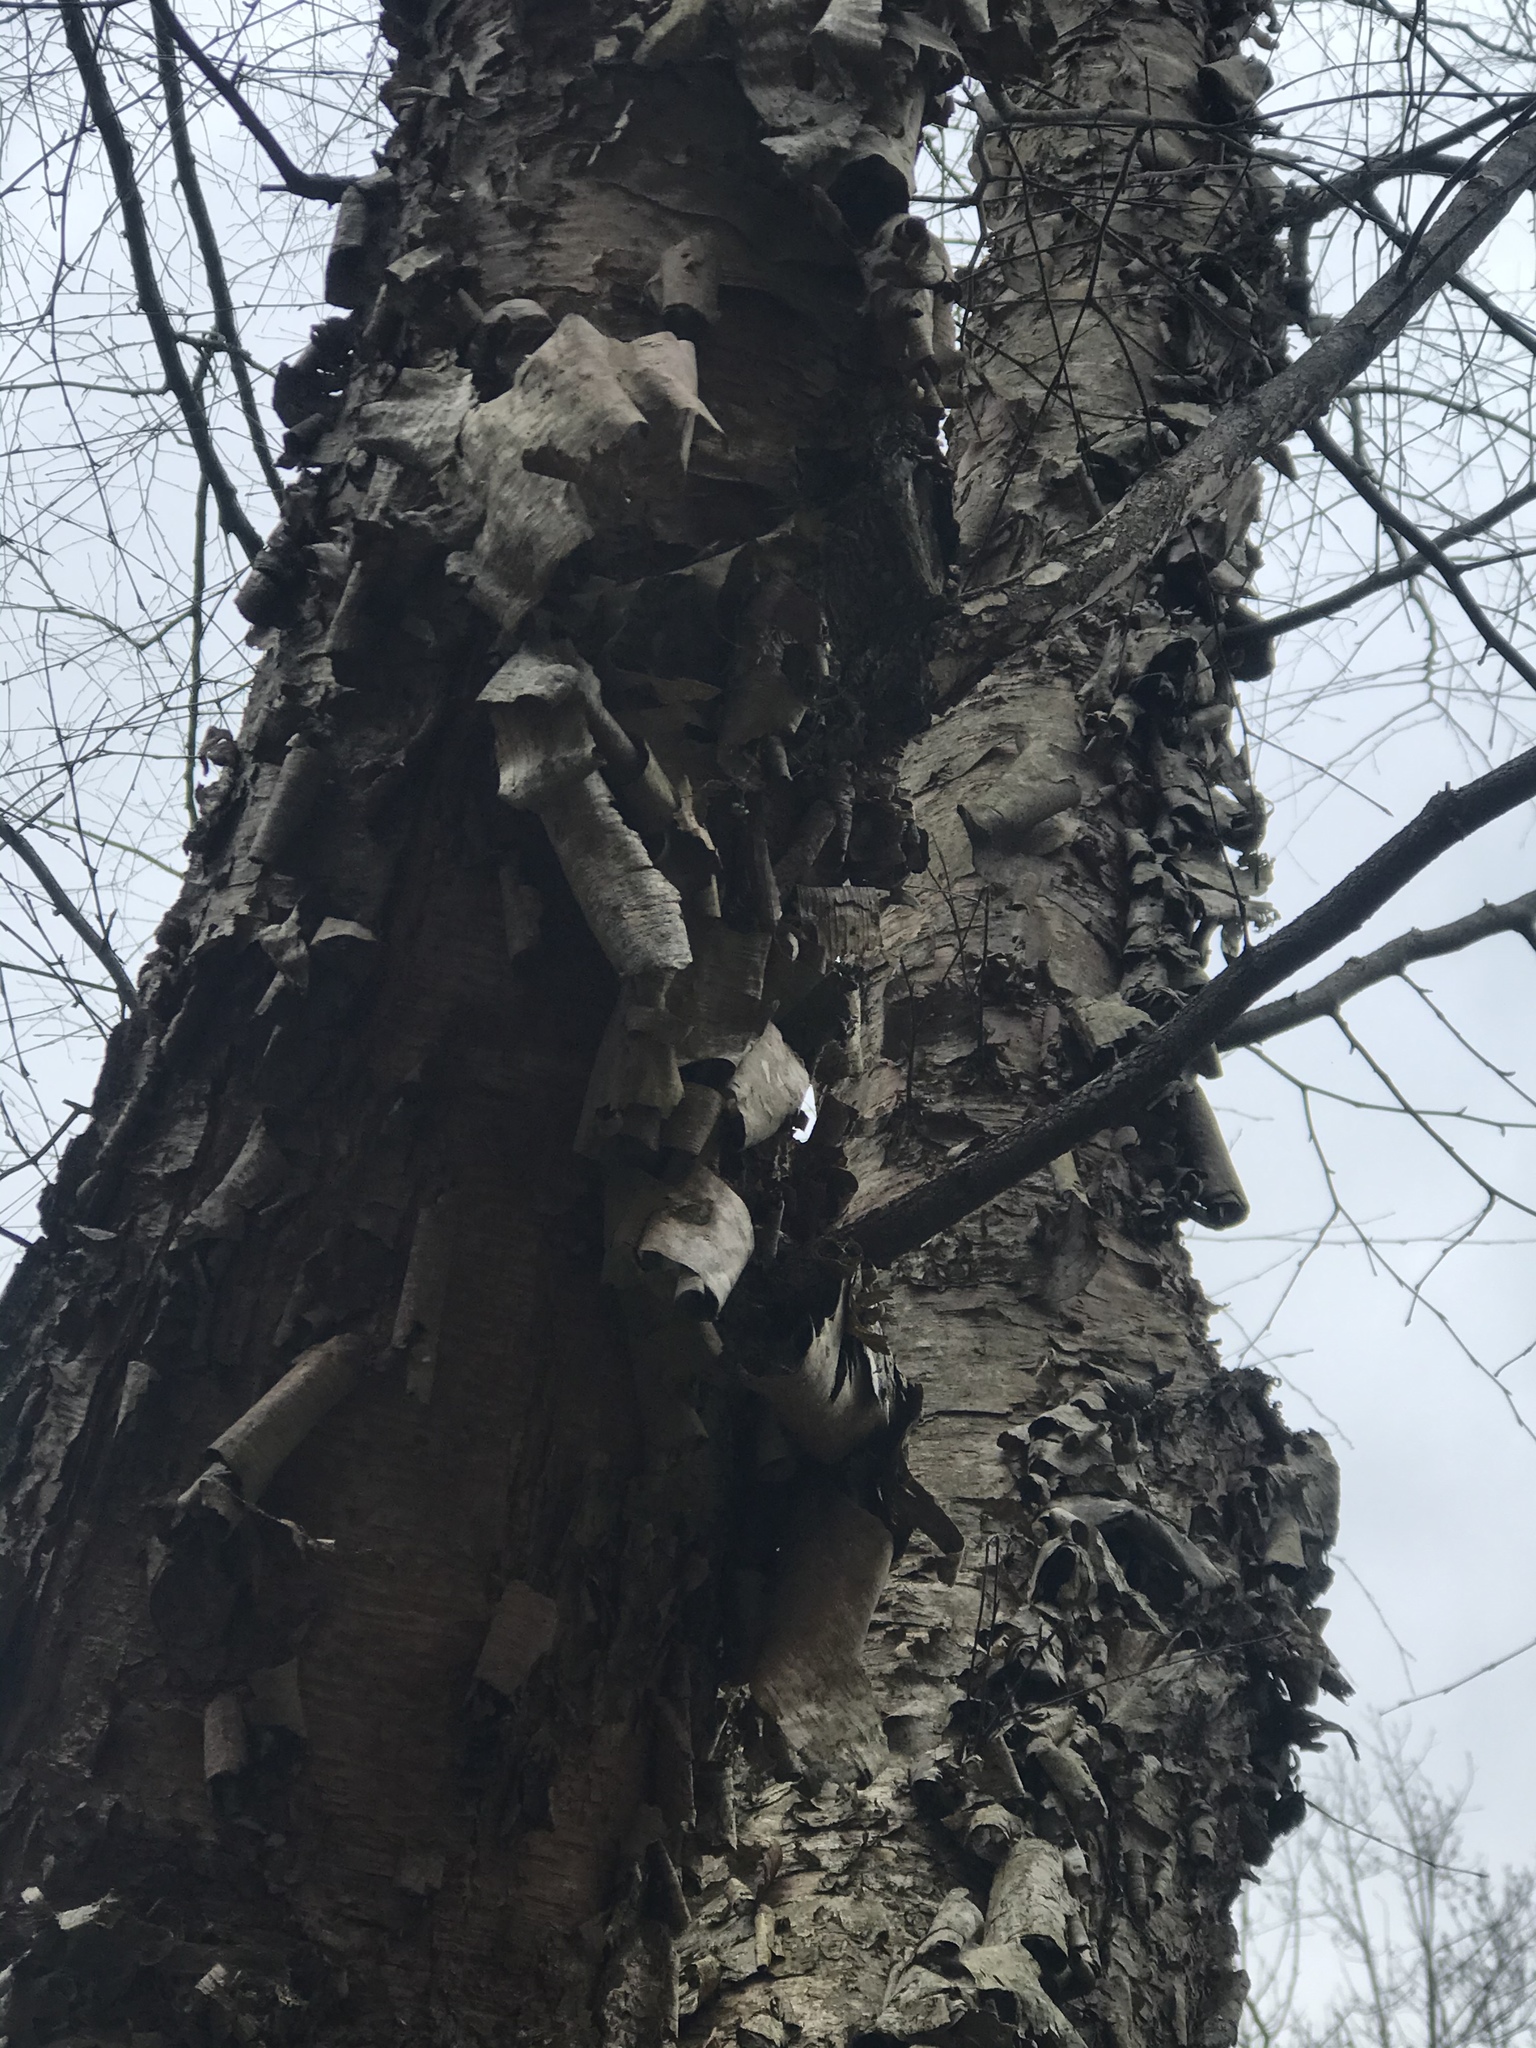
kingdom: Plantae
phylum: Tracheophyta
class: Magnoliopsida
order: Fagales
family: Betulaceae
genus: Betula
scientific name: Betula nigra
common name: Black birch
